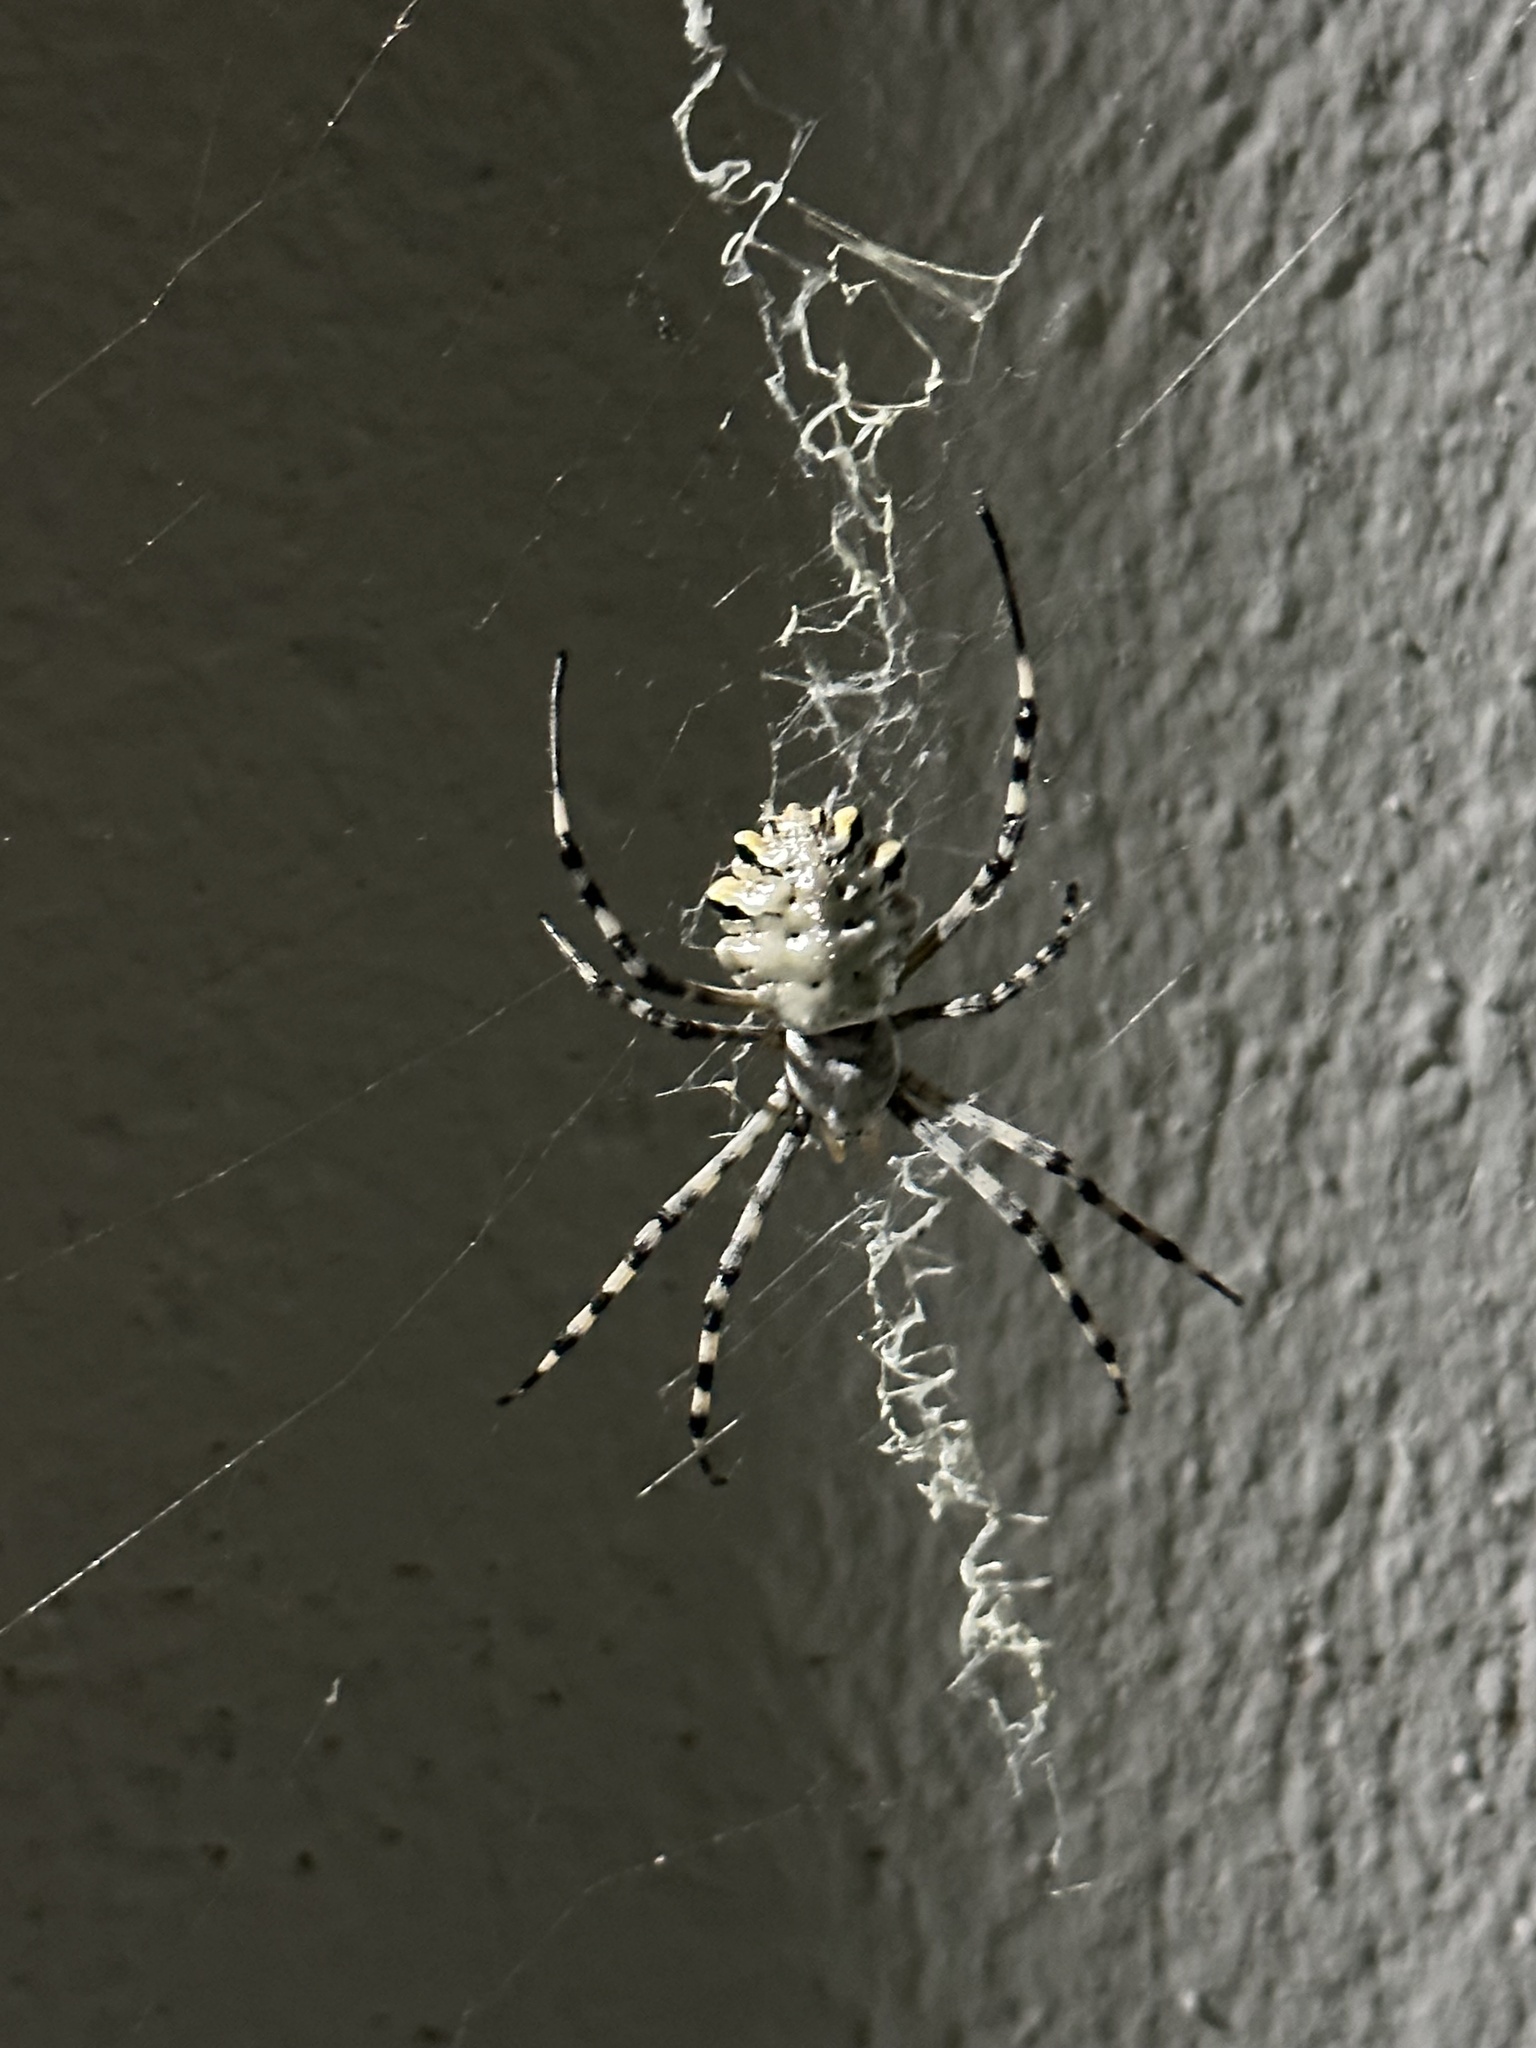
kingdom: Animalia
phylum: Arthropoda
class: Arachnida
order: Araneae
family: Araneidae
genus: Argiope
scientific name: Argiope lobata
